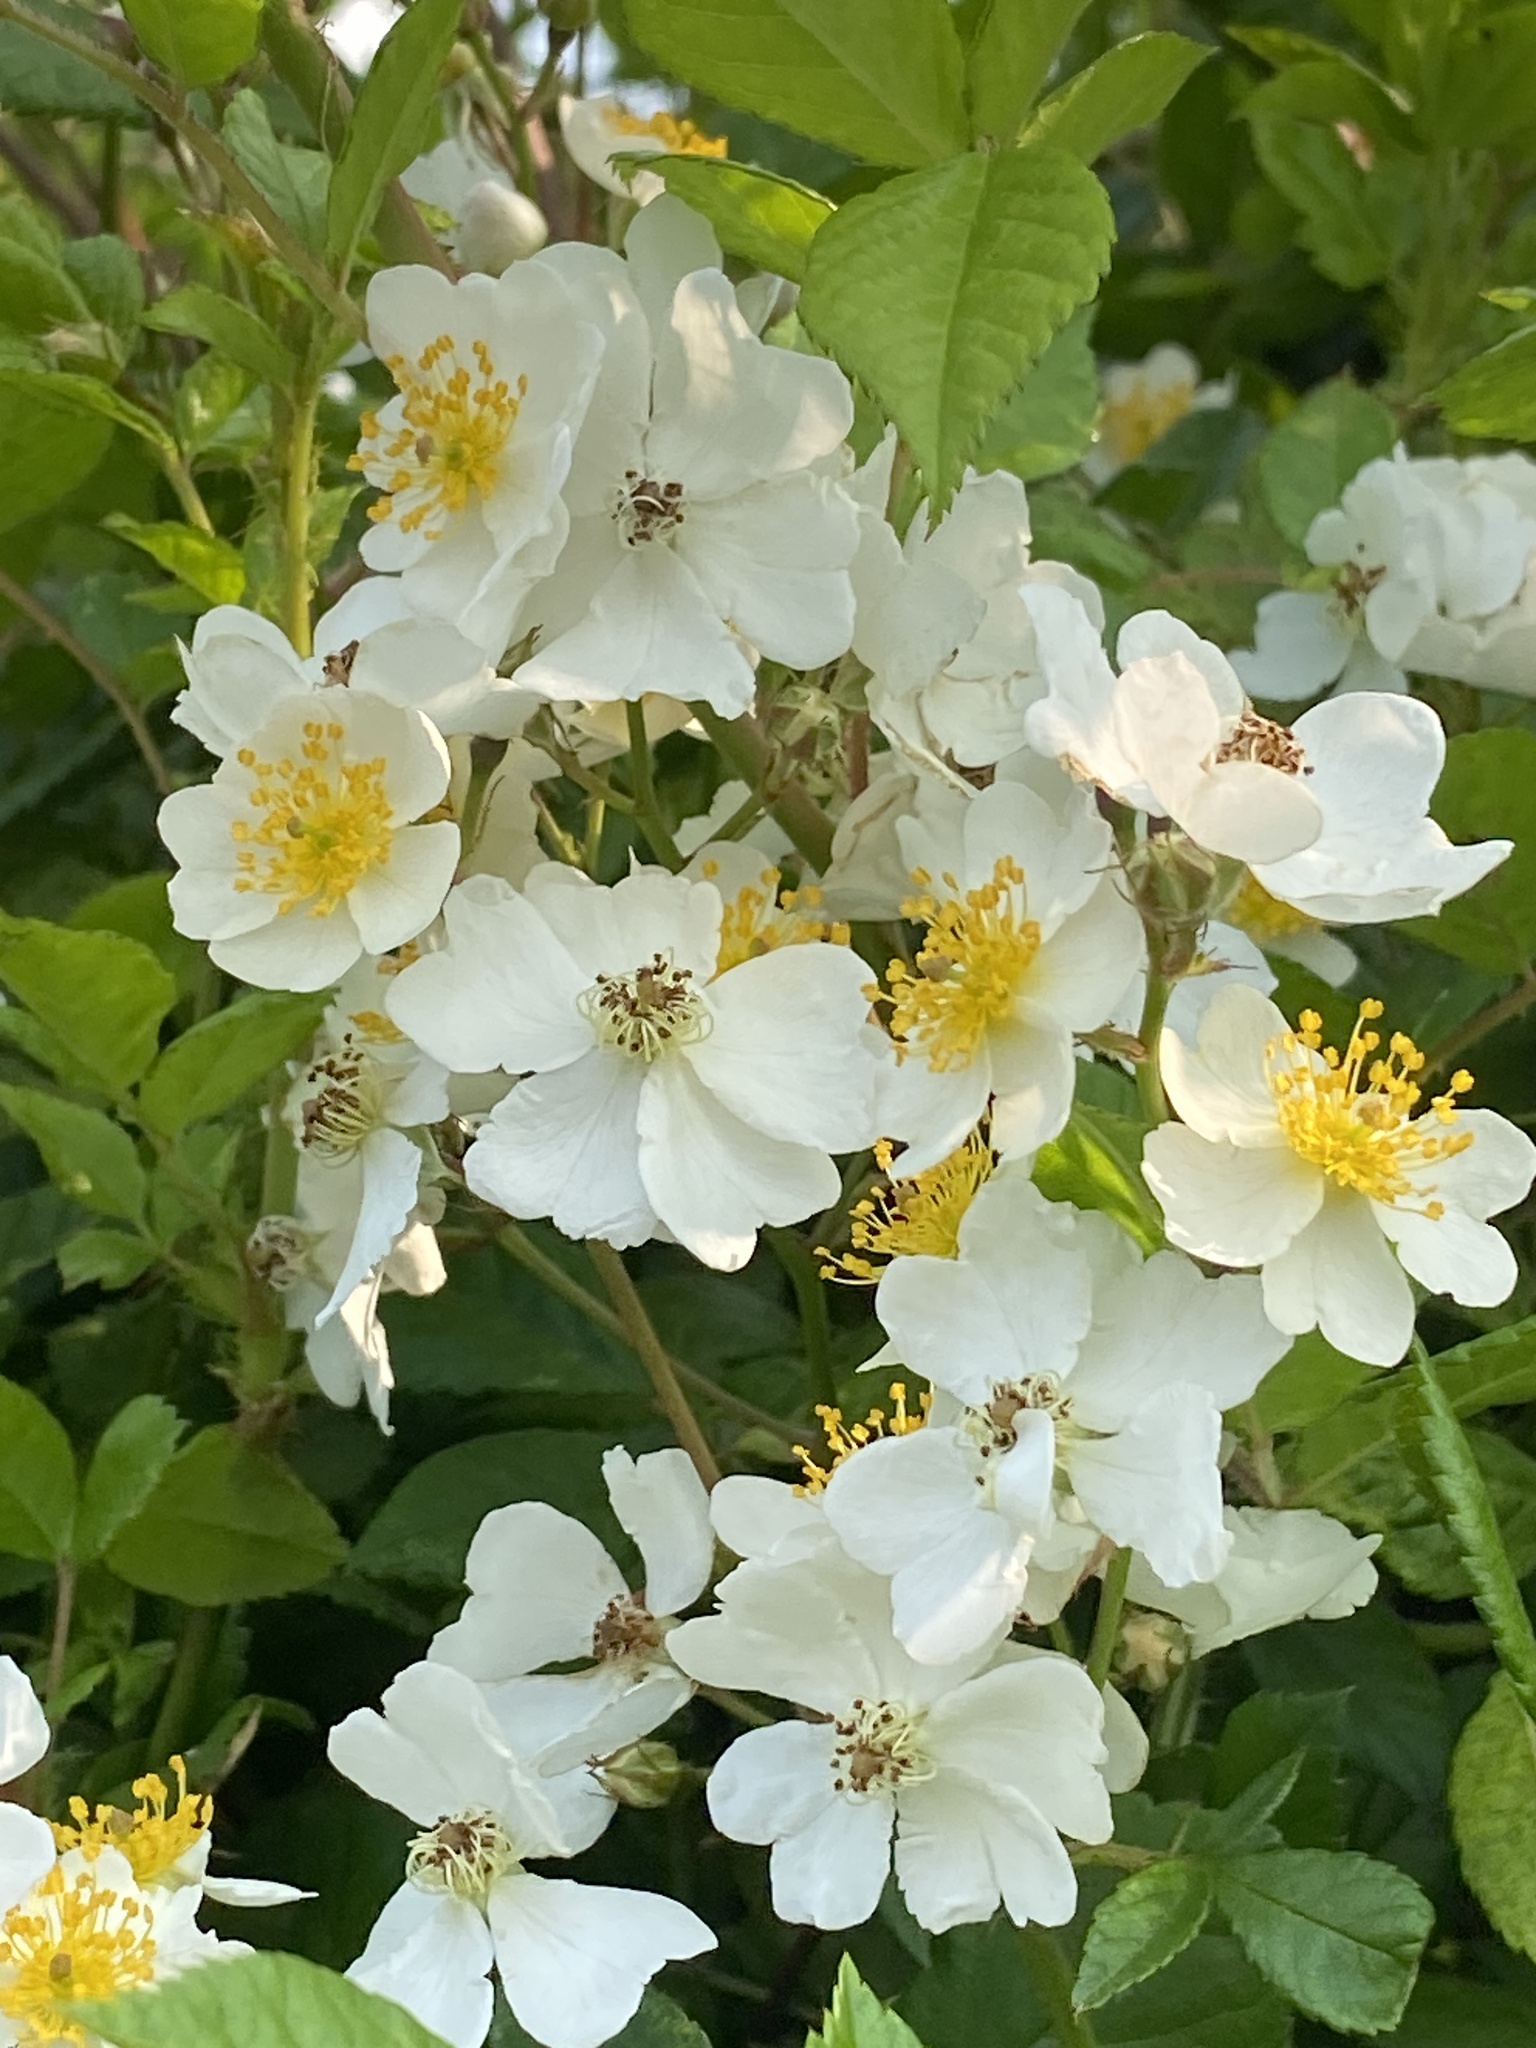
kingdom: Plantae
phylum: Tracheophyta
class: Magnoliopsida
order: Rosales
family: Rosaceae
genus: Rosa
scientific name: Rosa multiflora
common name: Multiflora rose
